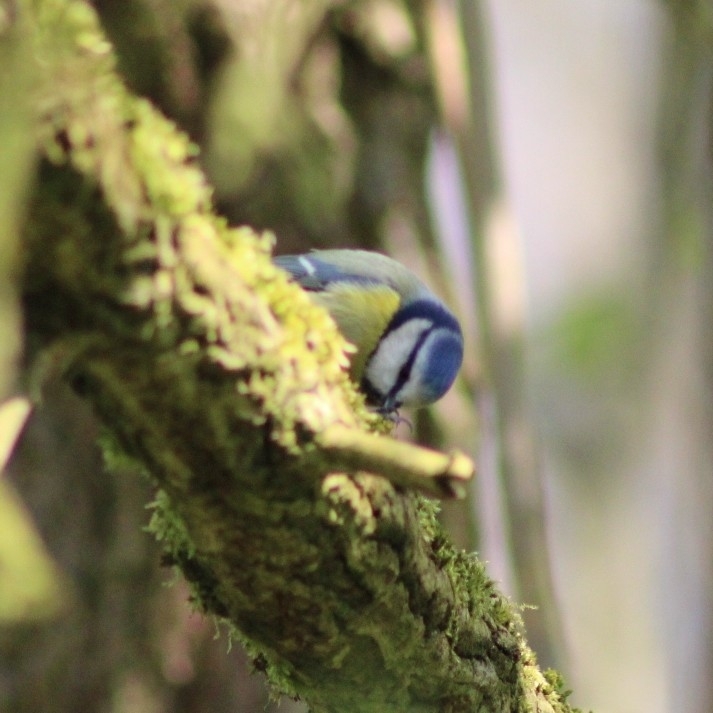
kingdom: Animalia
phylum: Chordata
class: Aves
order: Passeriformes
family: Paridae
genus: Cyanistes
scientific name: Cyanistes caeruleus
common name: Eurasian blue tit
